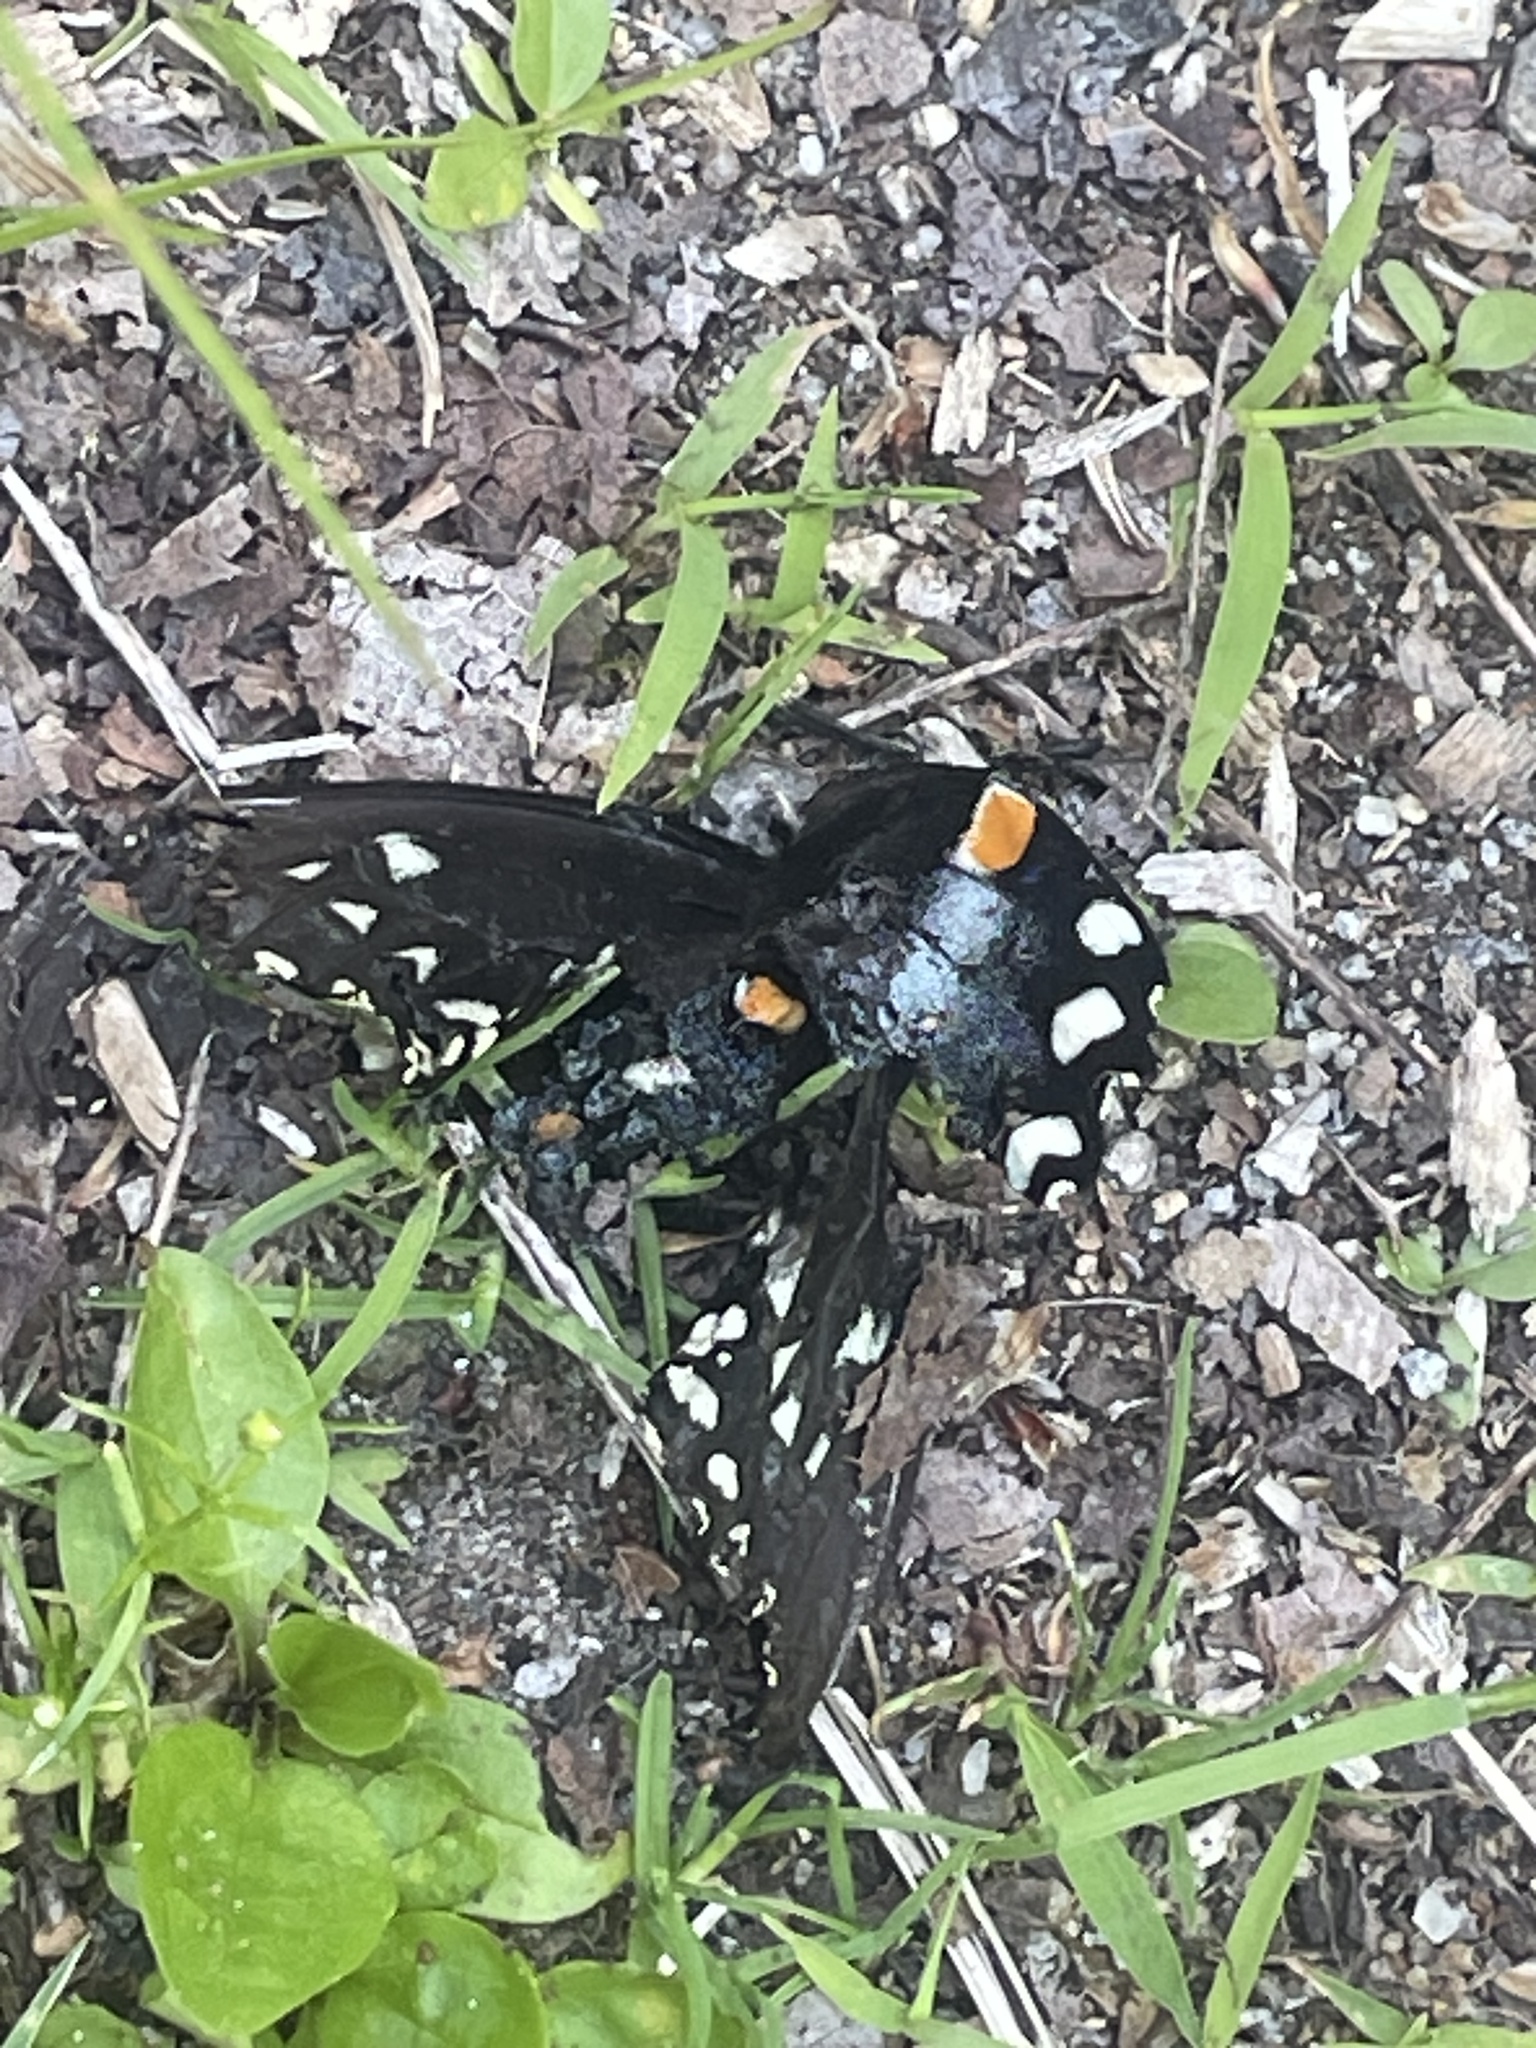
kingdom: Animalia
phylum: Arthropoda
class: Insecta
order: Lepidoptera
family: Papilionidae
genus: Papilio
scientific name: Papilio troilus
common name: Spicebush swallowtail
